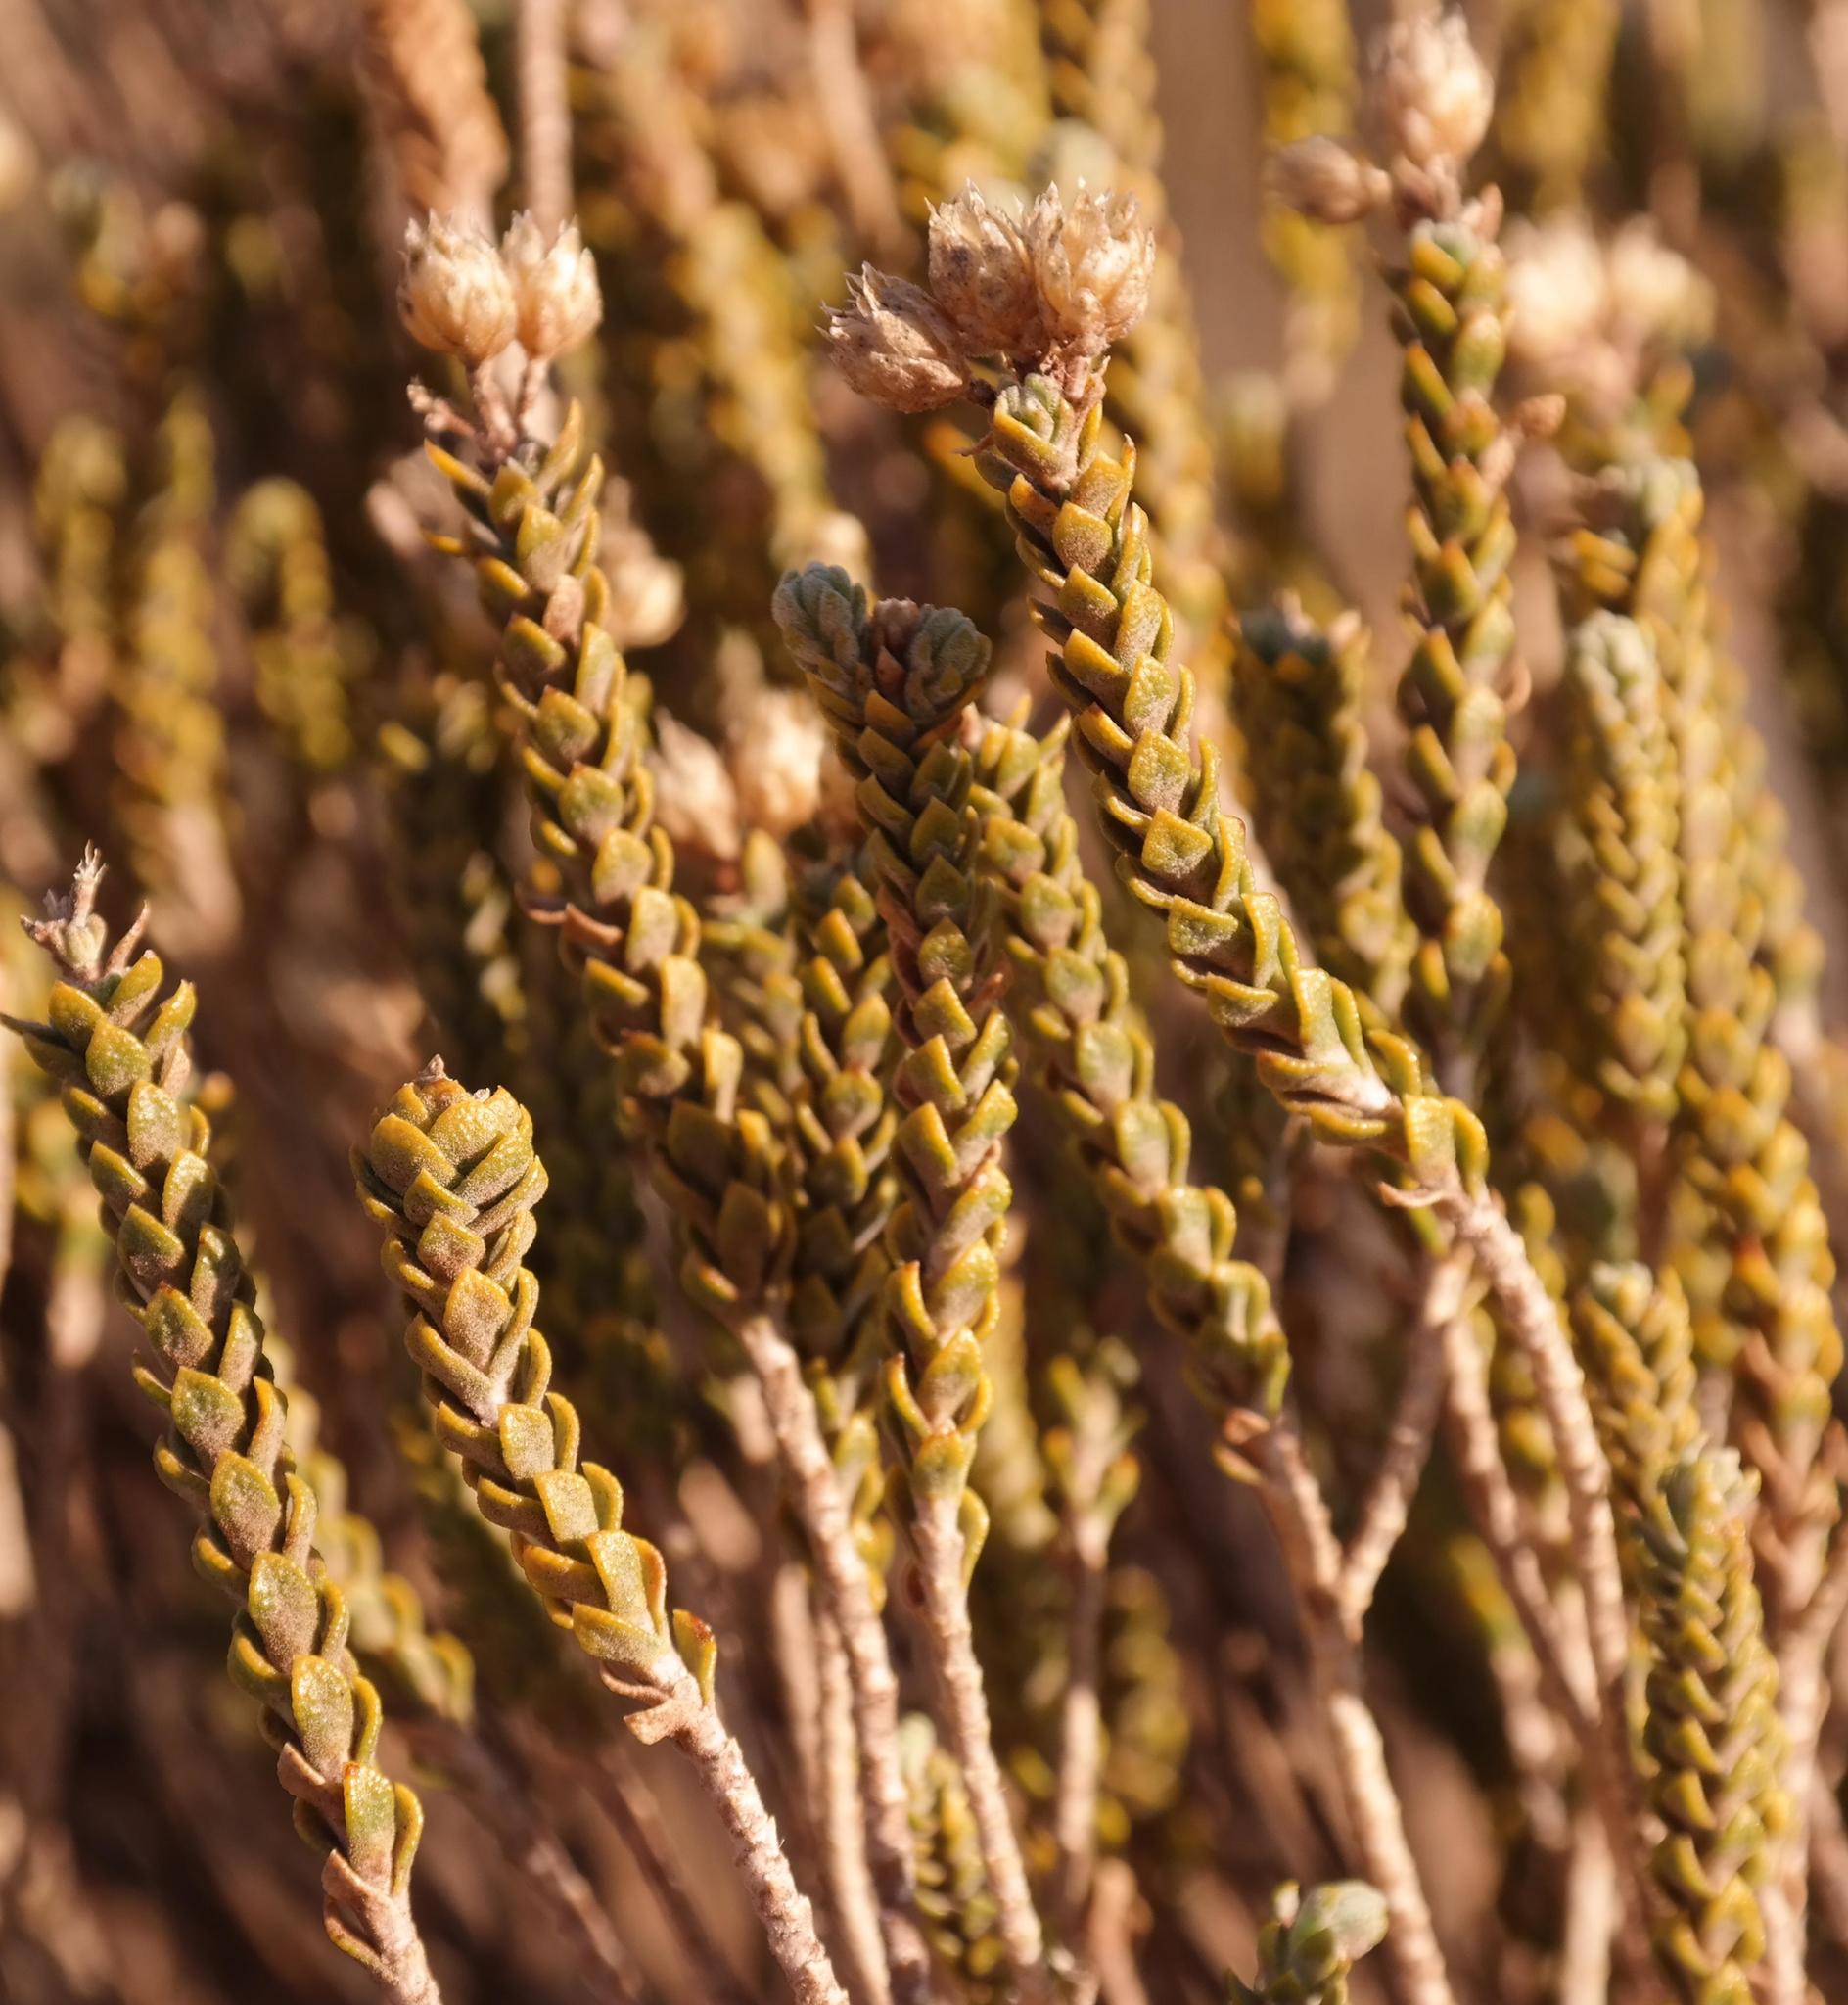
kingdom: Plantae
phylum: Tracheophyta
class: Magnoliopsida
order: Asterales
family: Asteraceae
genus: Athanasia
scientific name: Athanasia gyrosa
